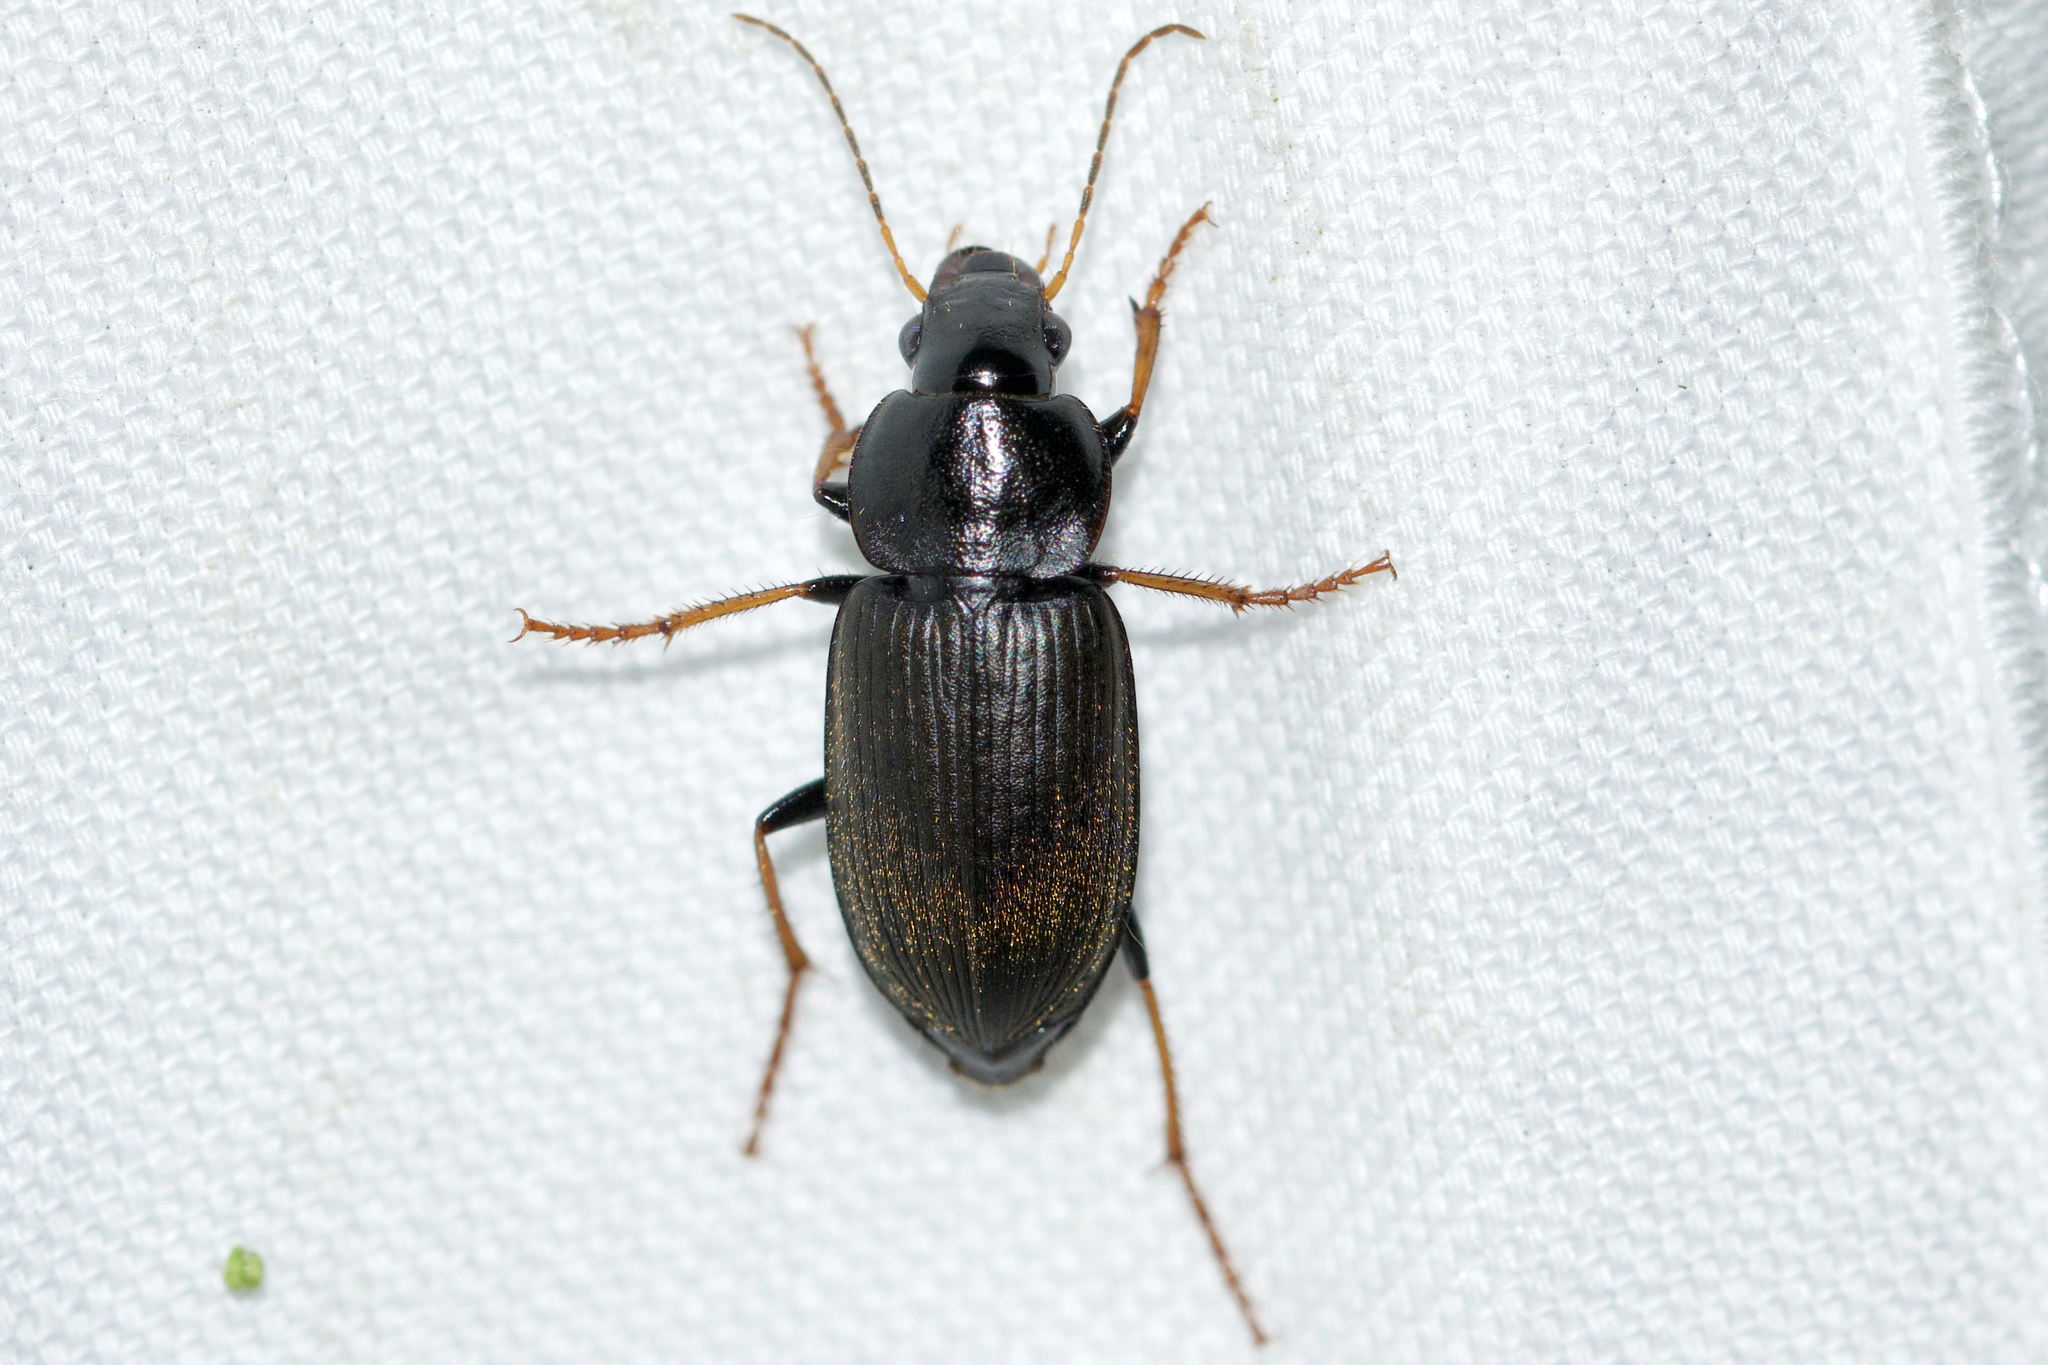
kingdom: Animalia
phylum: Arthropoda
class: Insecta
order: Coleoptera
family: Carabidae
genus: Amphasia
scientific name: Amphasia sericea
